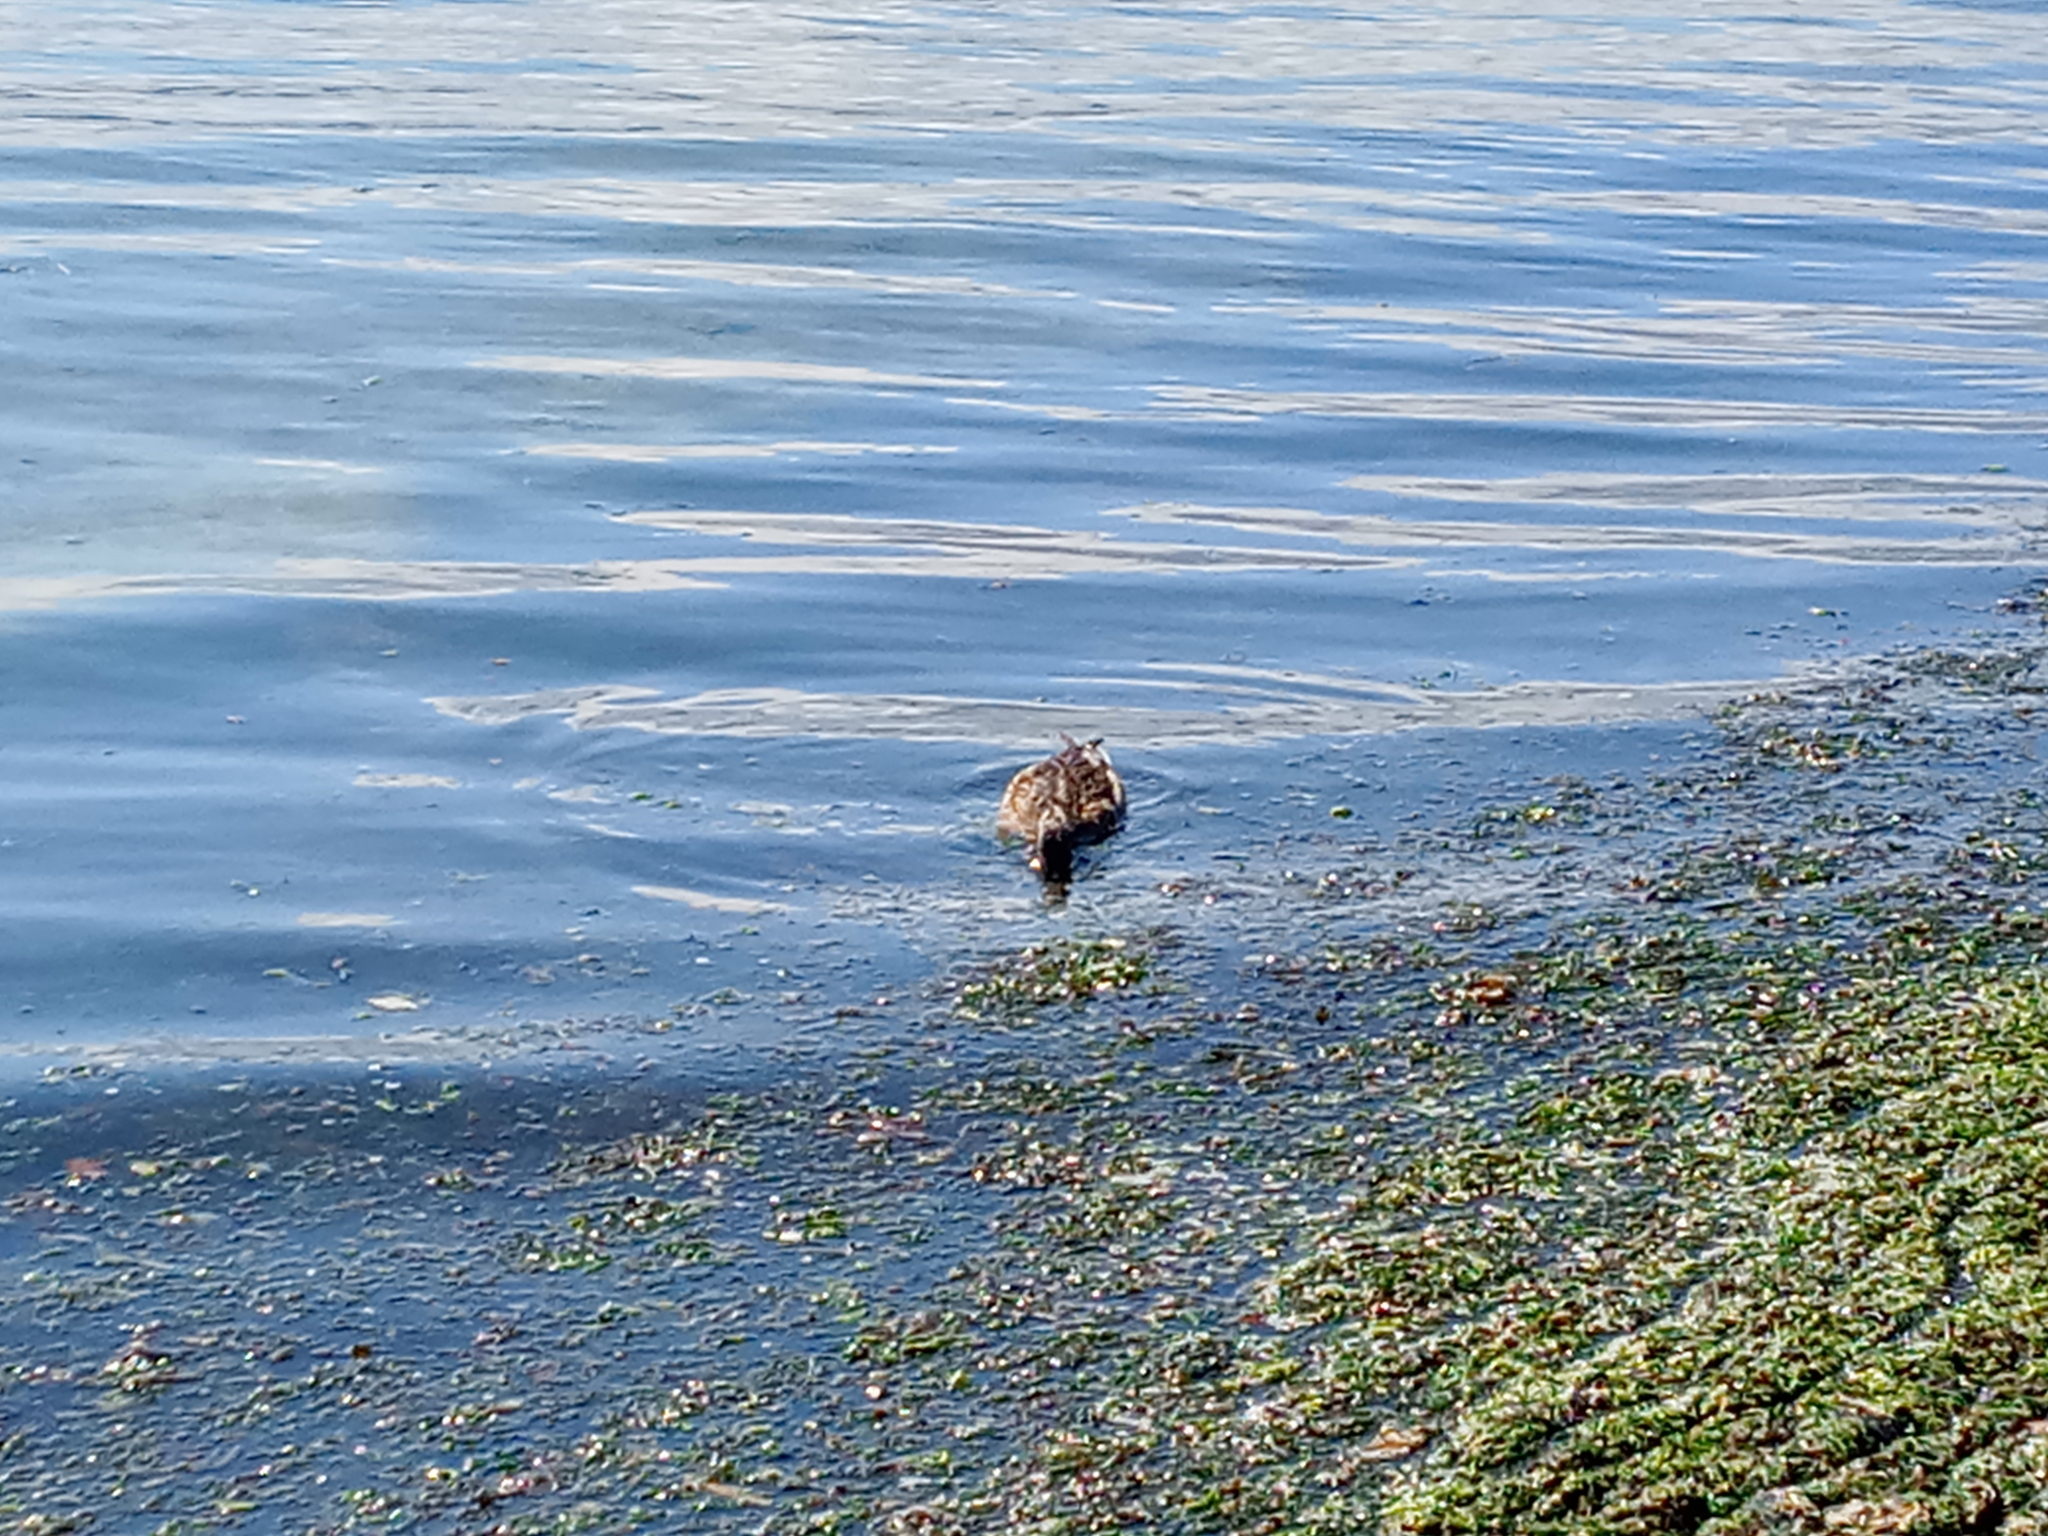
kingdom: Animalia
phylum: Chordata
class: Aves
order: Anseriformes
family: Anatidae
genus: Anas
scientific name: Anas platyrhynchos
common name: Mallard
